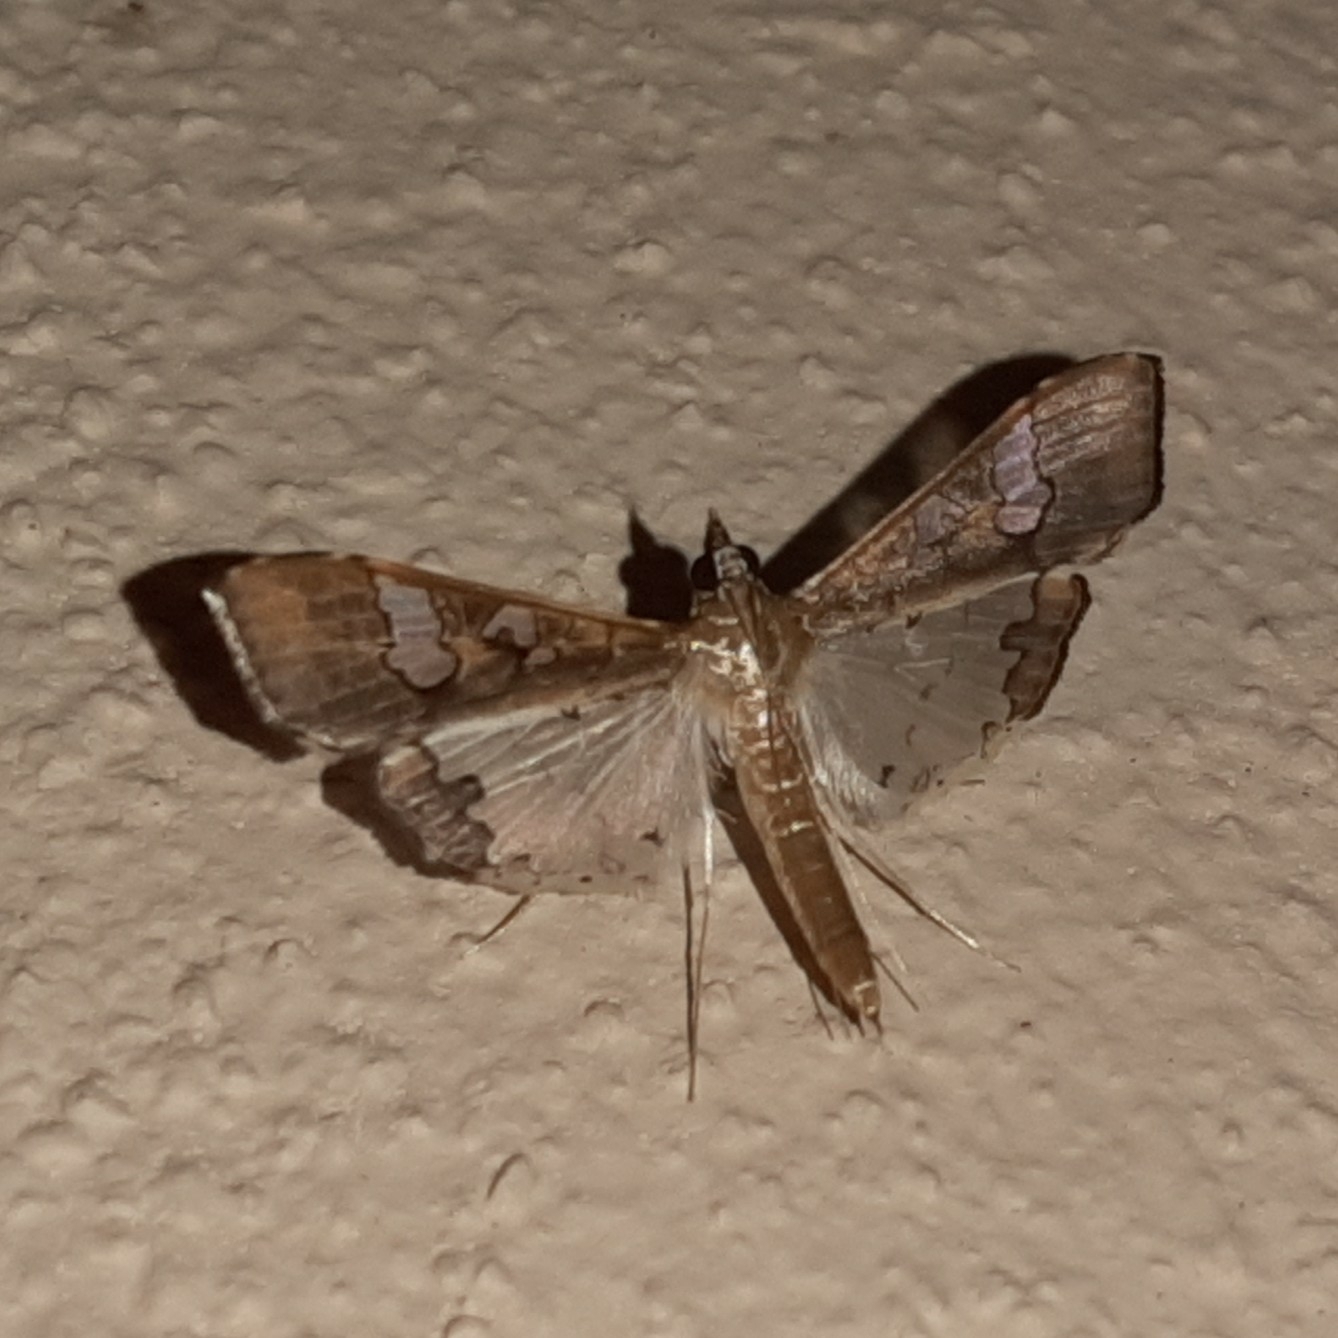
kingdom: Animalia
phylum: Arthropoda
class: Insecta
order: Lepidoptera
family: Crambidae
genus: Maruca
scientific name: Maruca vitrata
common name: Maruca pod borer
